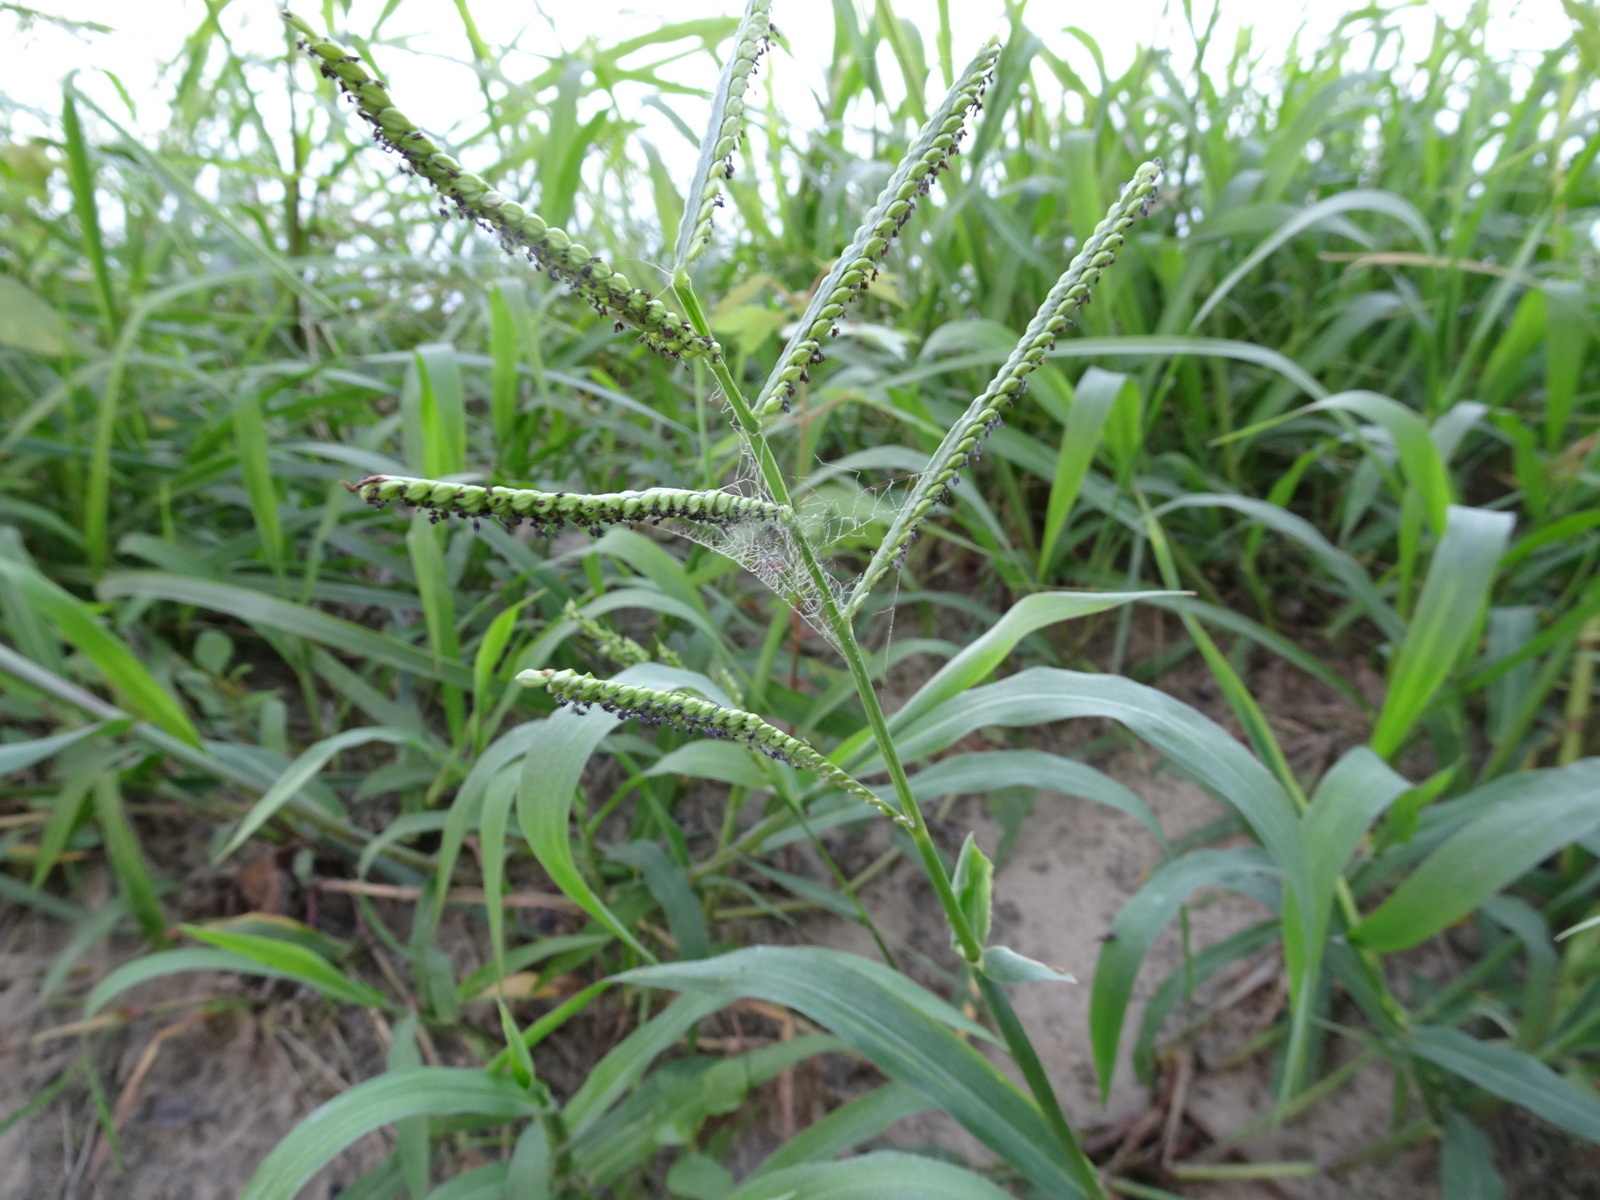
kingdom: Plantae
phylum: Tracheophyta
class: Liliopsida
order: Poales
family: Poaceae
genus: Paspalum
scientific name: Paspalum pubiflorum
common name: Hairy-seed paspalum
